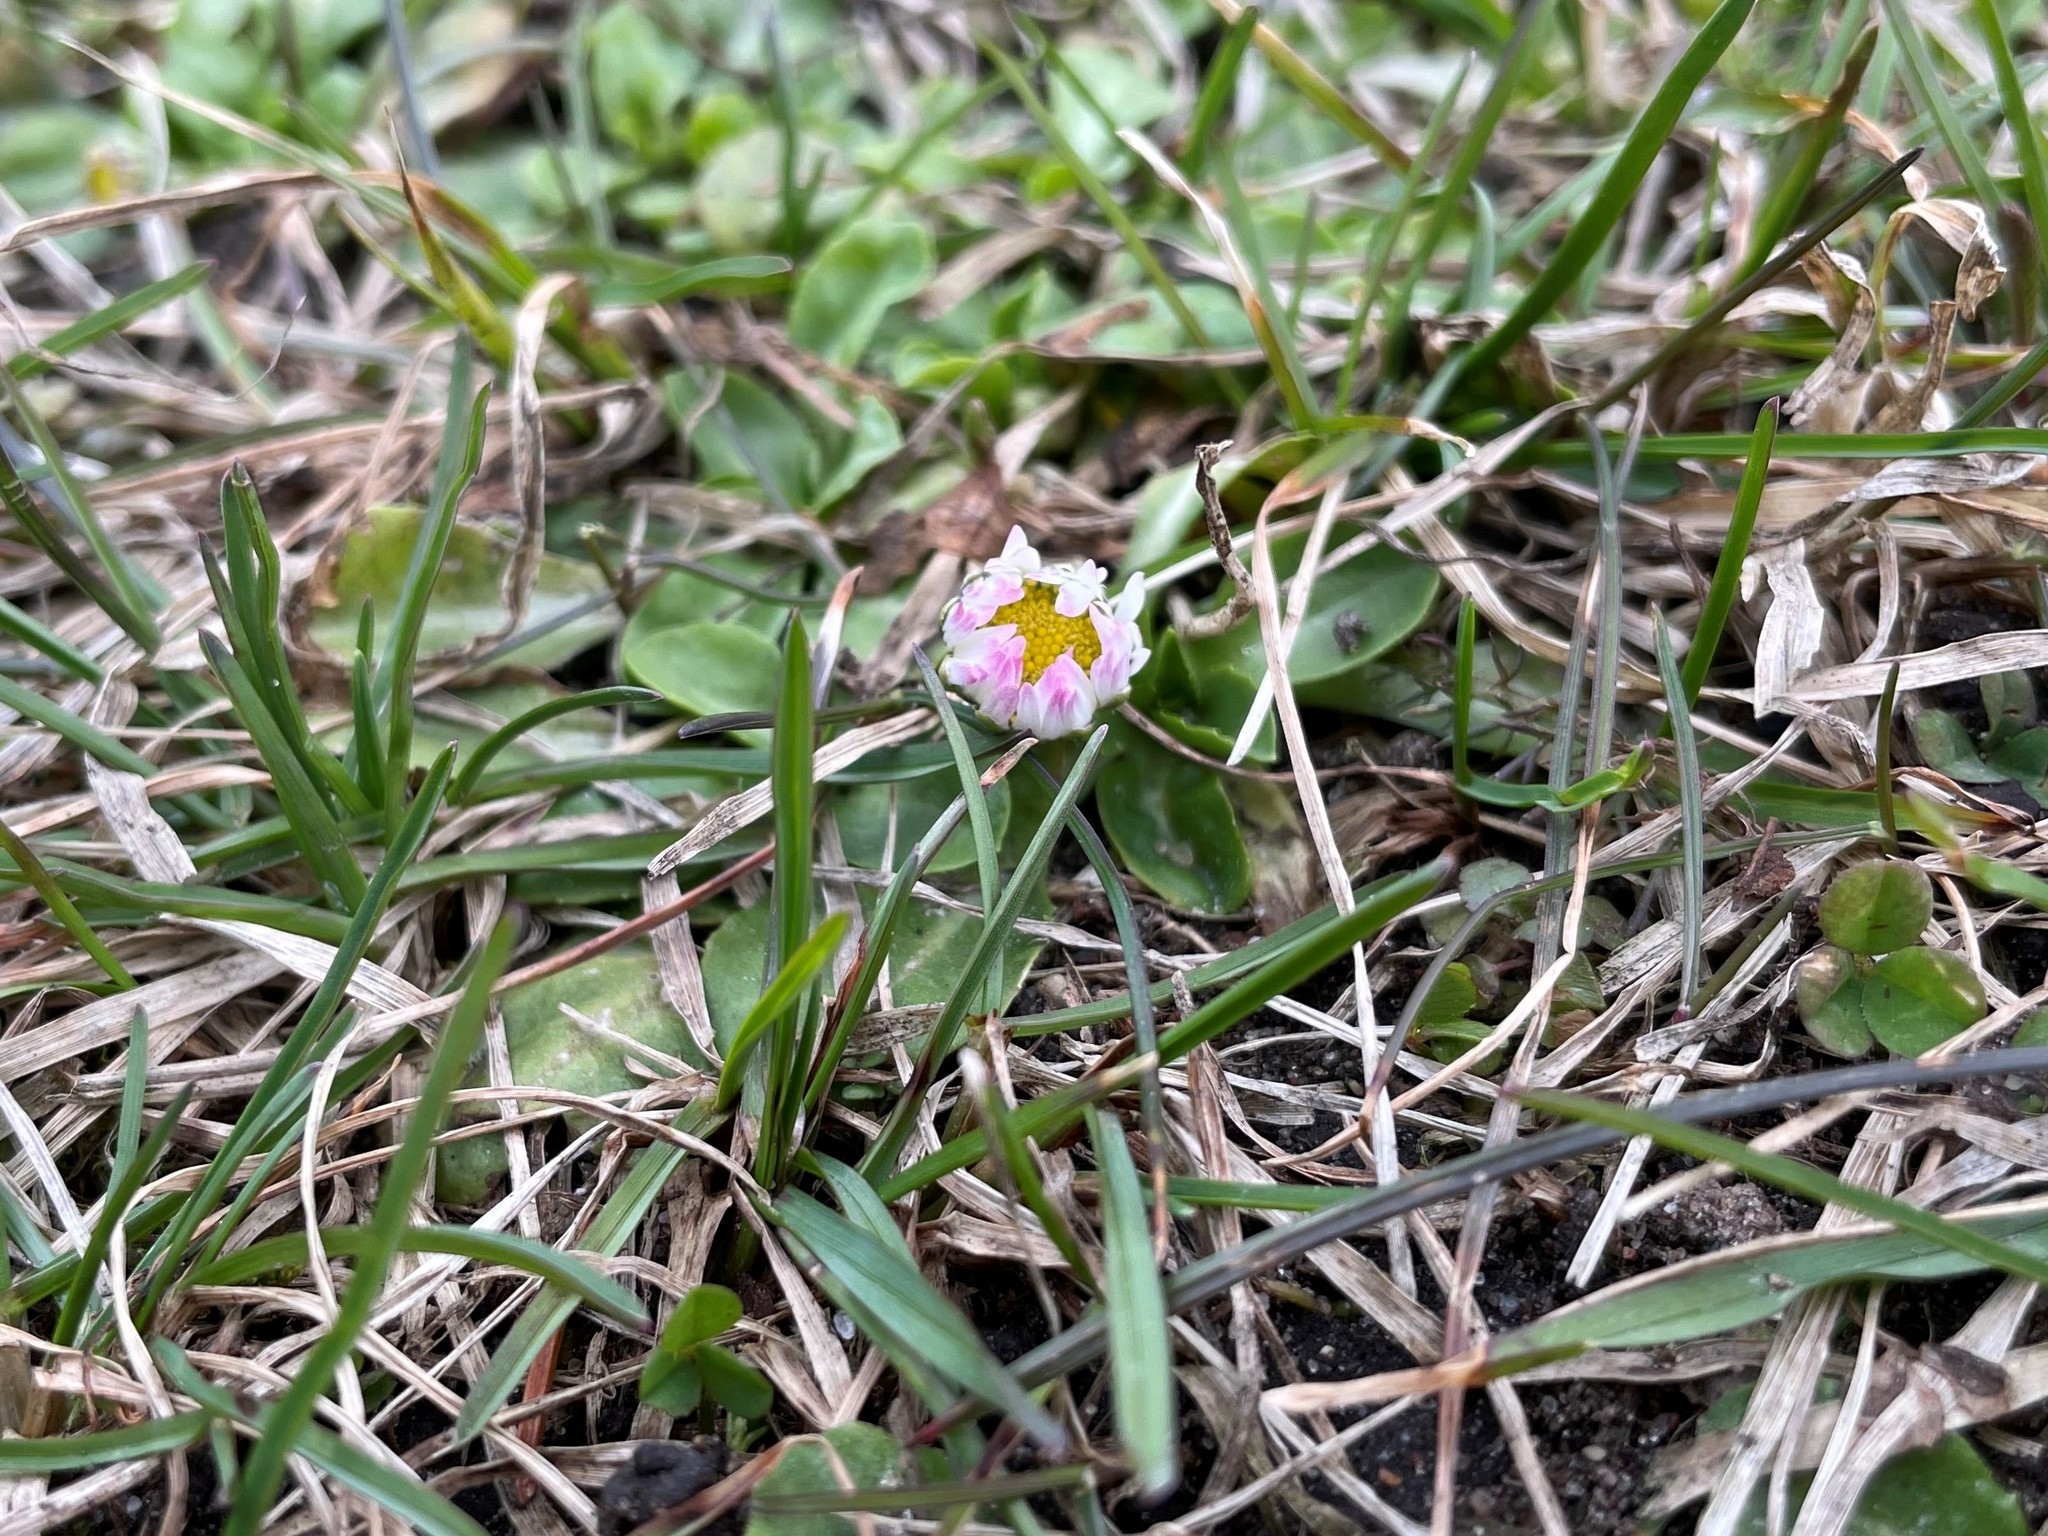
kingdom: Plantae
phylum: Tracheophyta
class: Magnoliopsida
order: Asterales
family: Asteraceae
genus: Bellis
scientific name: Bellis perennis
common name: Lawndaisy
